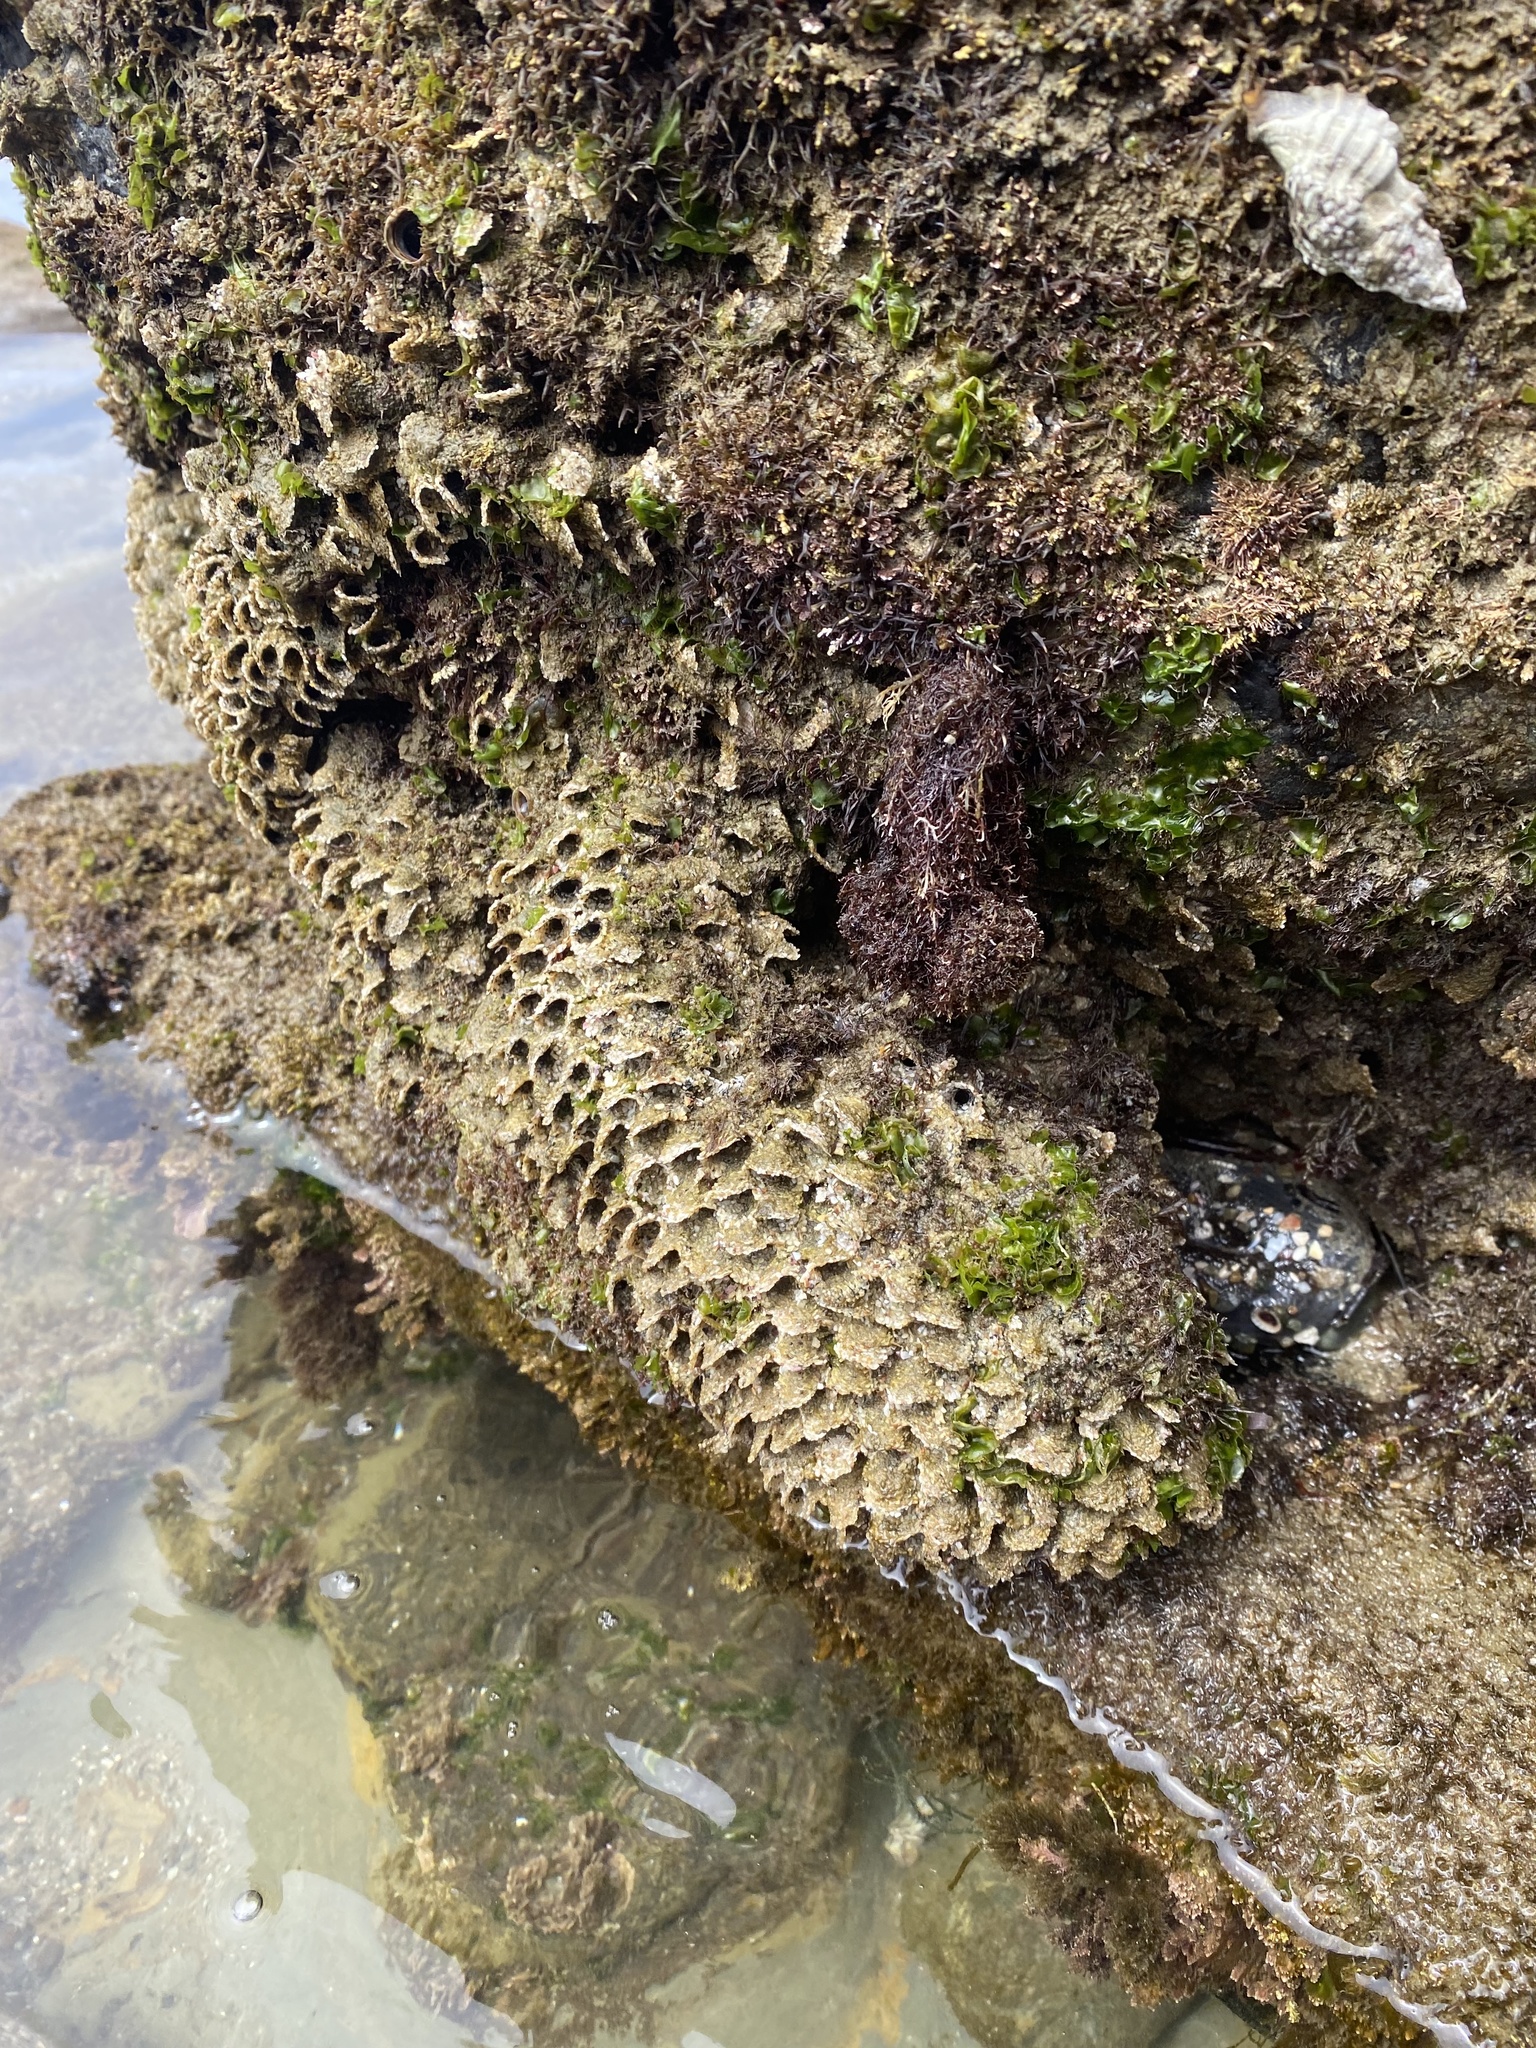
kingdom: Animalia
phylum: Annelida
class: Polychaeta
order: Sabellida
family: Sabellariidae
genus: Phragmatopoma
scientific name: Phragmatopoma californica
